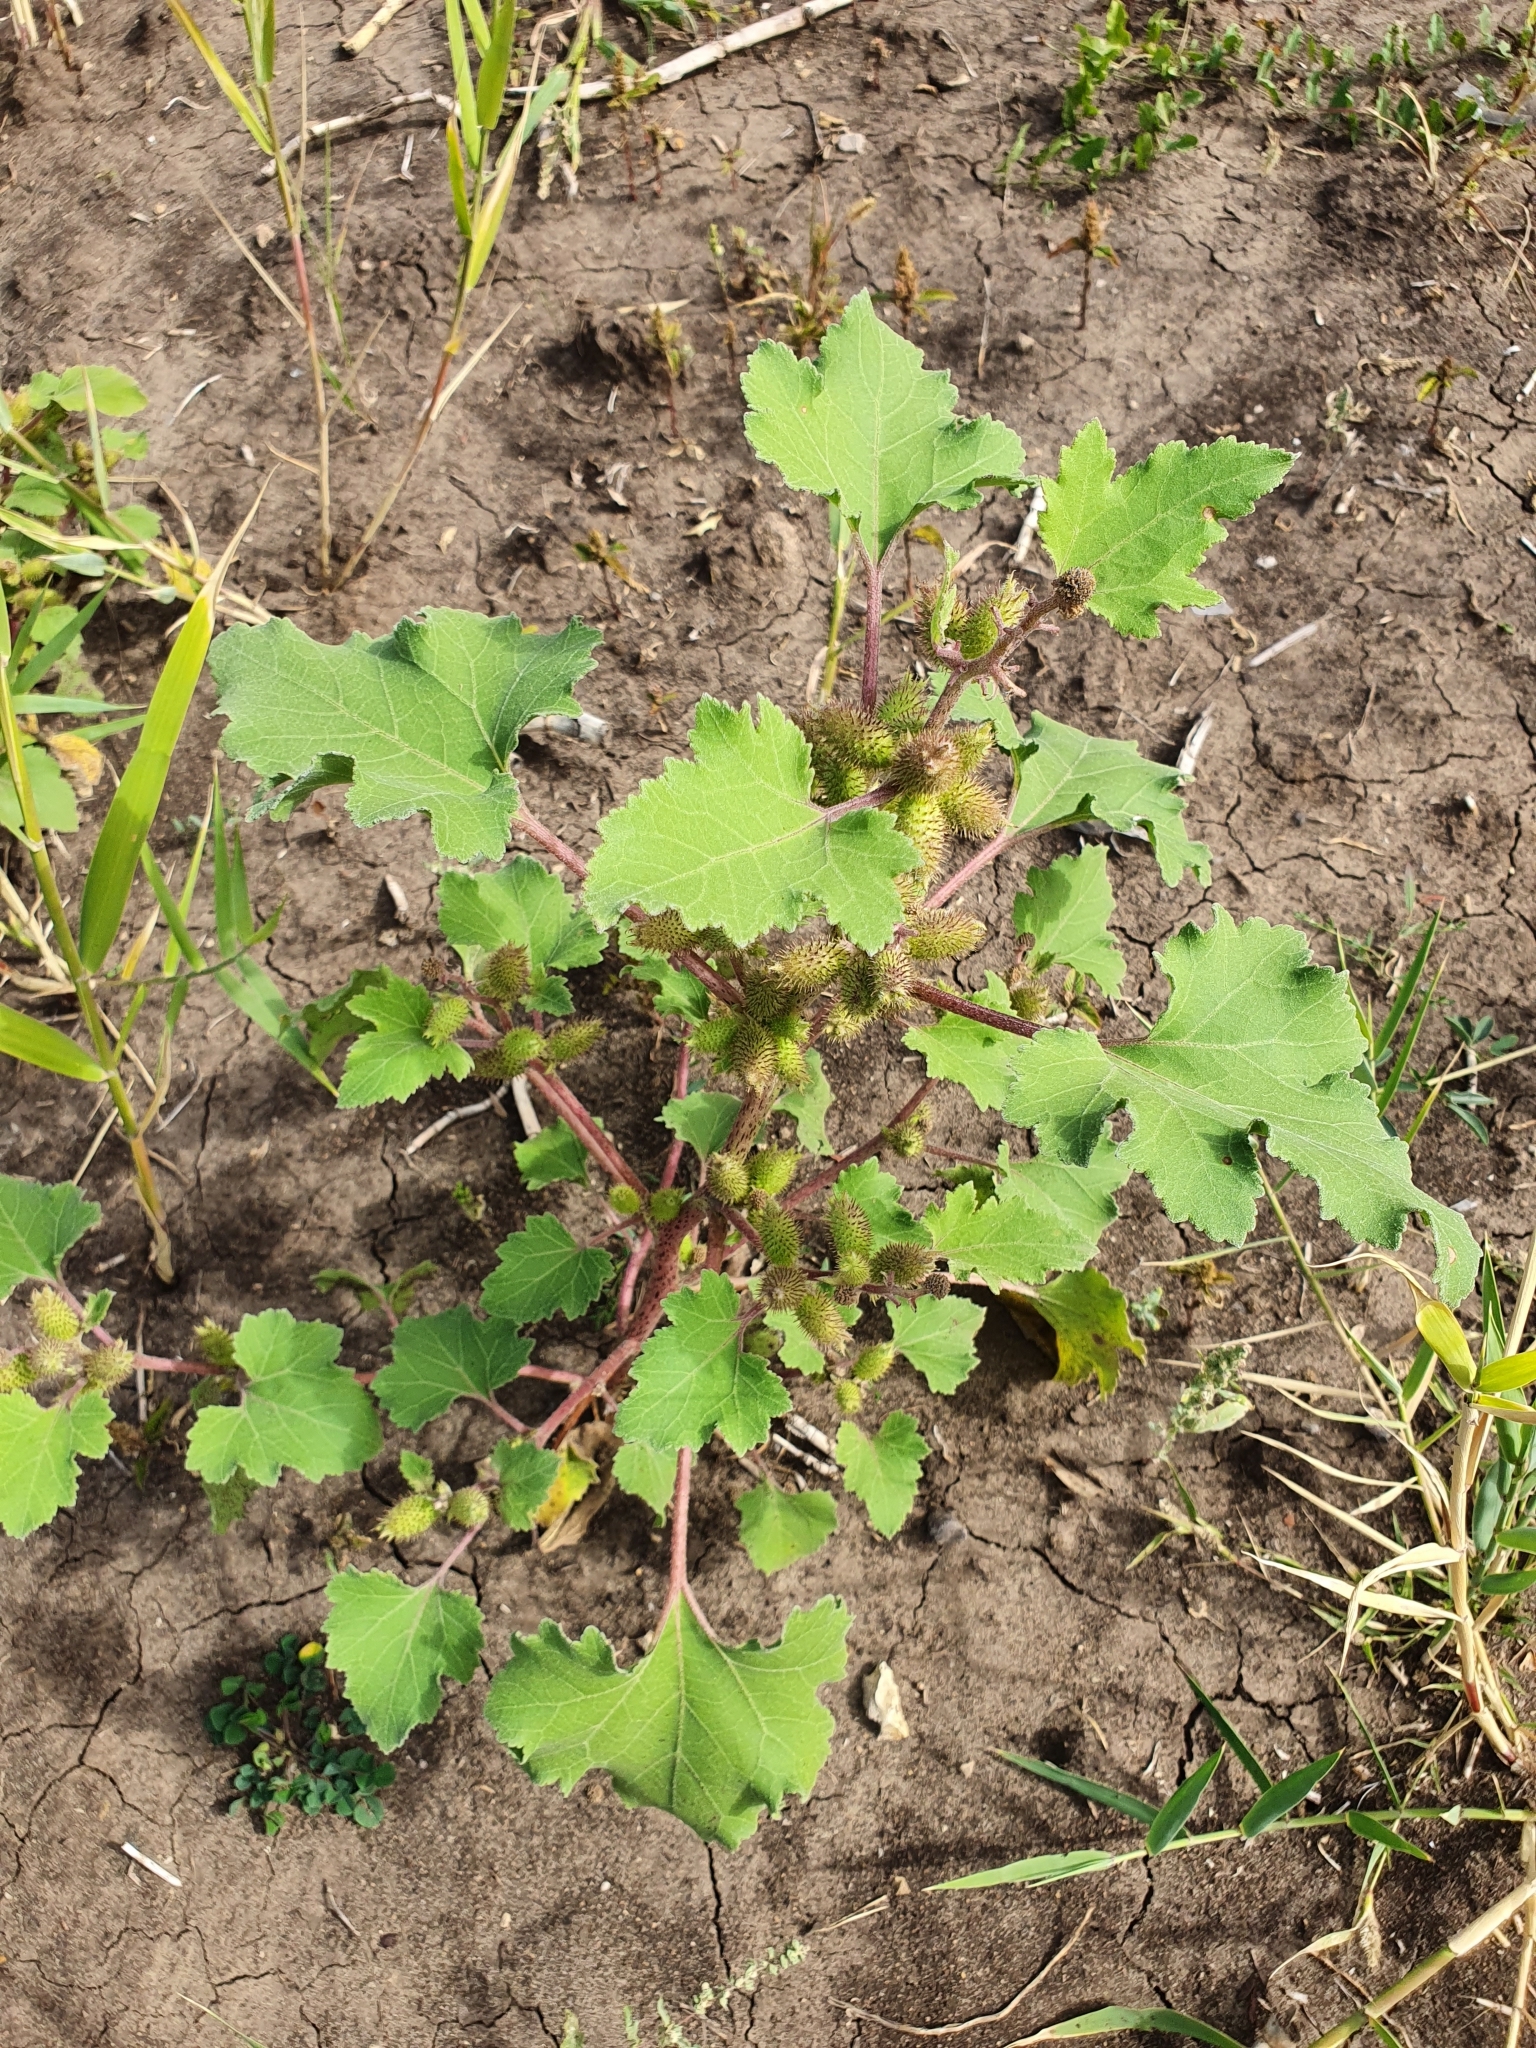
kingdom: Plantae
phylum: Tracheophyta
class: Magnoliopsida
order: Asterales
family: Asteraceae
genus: Xanthium
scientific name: Xanthium orientale
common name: Californian burr
